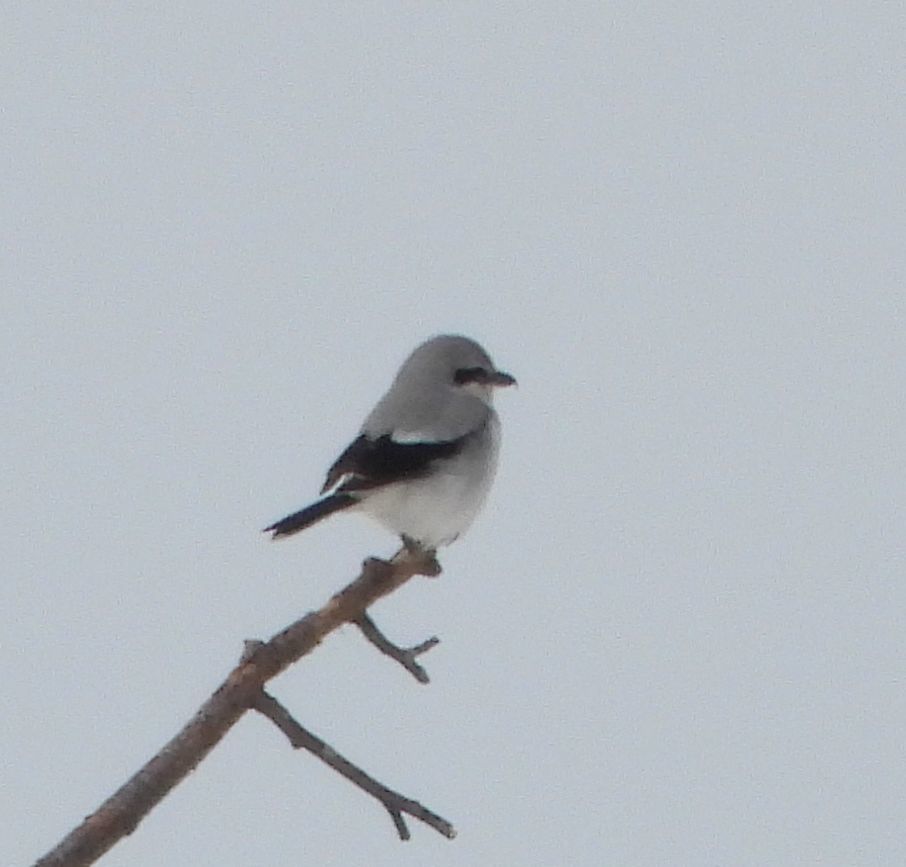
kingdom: Animalia
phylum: Chordata
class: Aves
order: Passeriformes
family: Laniidae
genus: Lanius
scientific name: Lanius borealis
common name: Northern shrike
